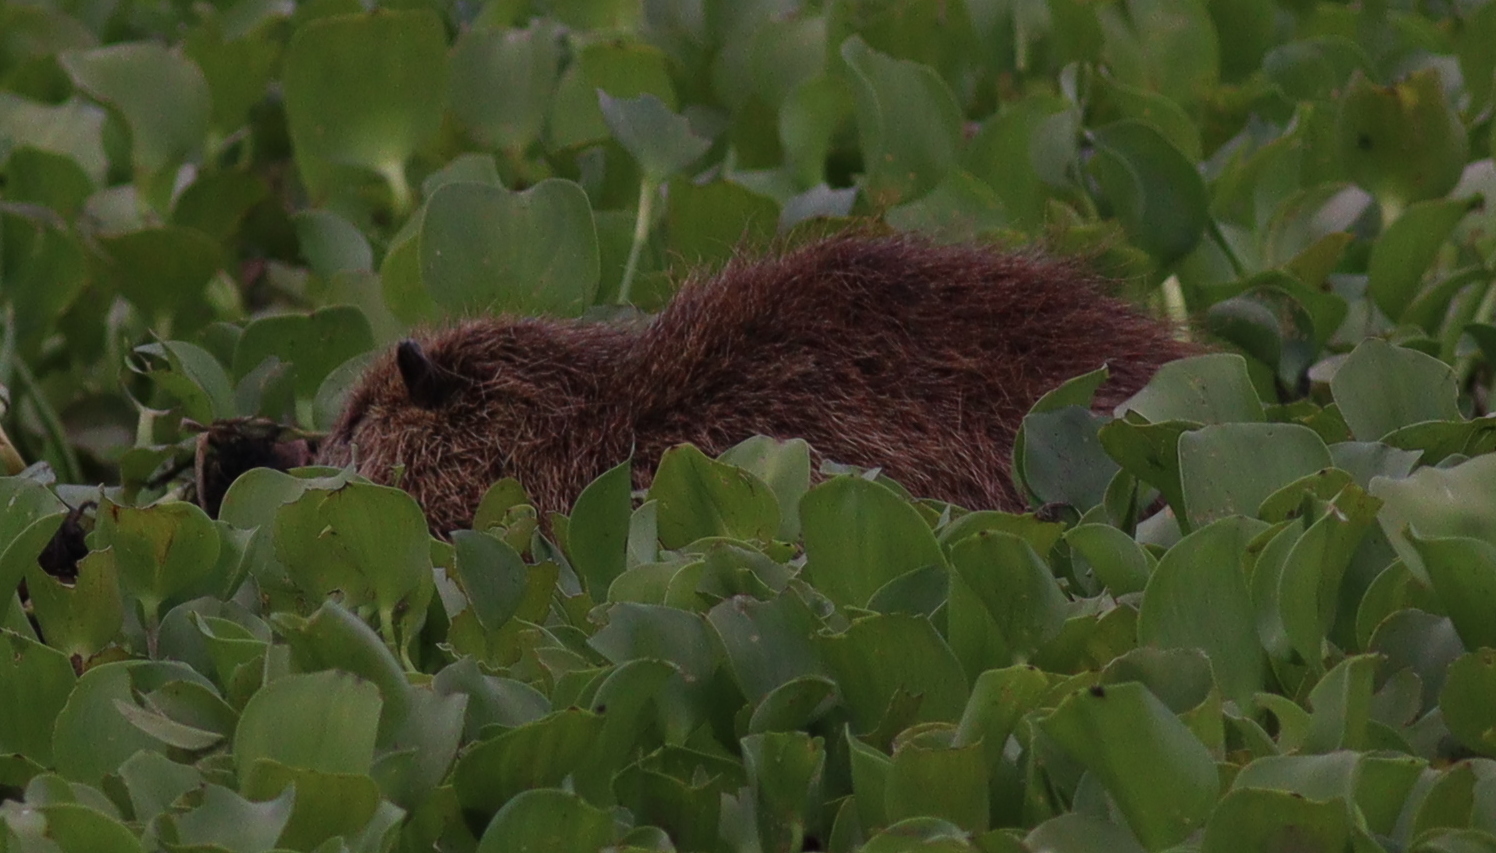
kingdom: Animalia
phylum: Chordata
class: Mammalia
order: Rodentia
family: Myocastoridae
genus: Myocastor
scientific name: Myocastor coypus
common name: Coypu
